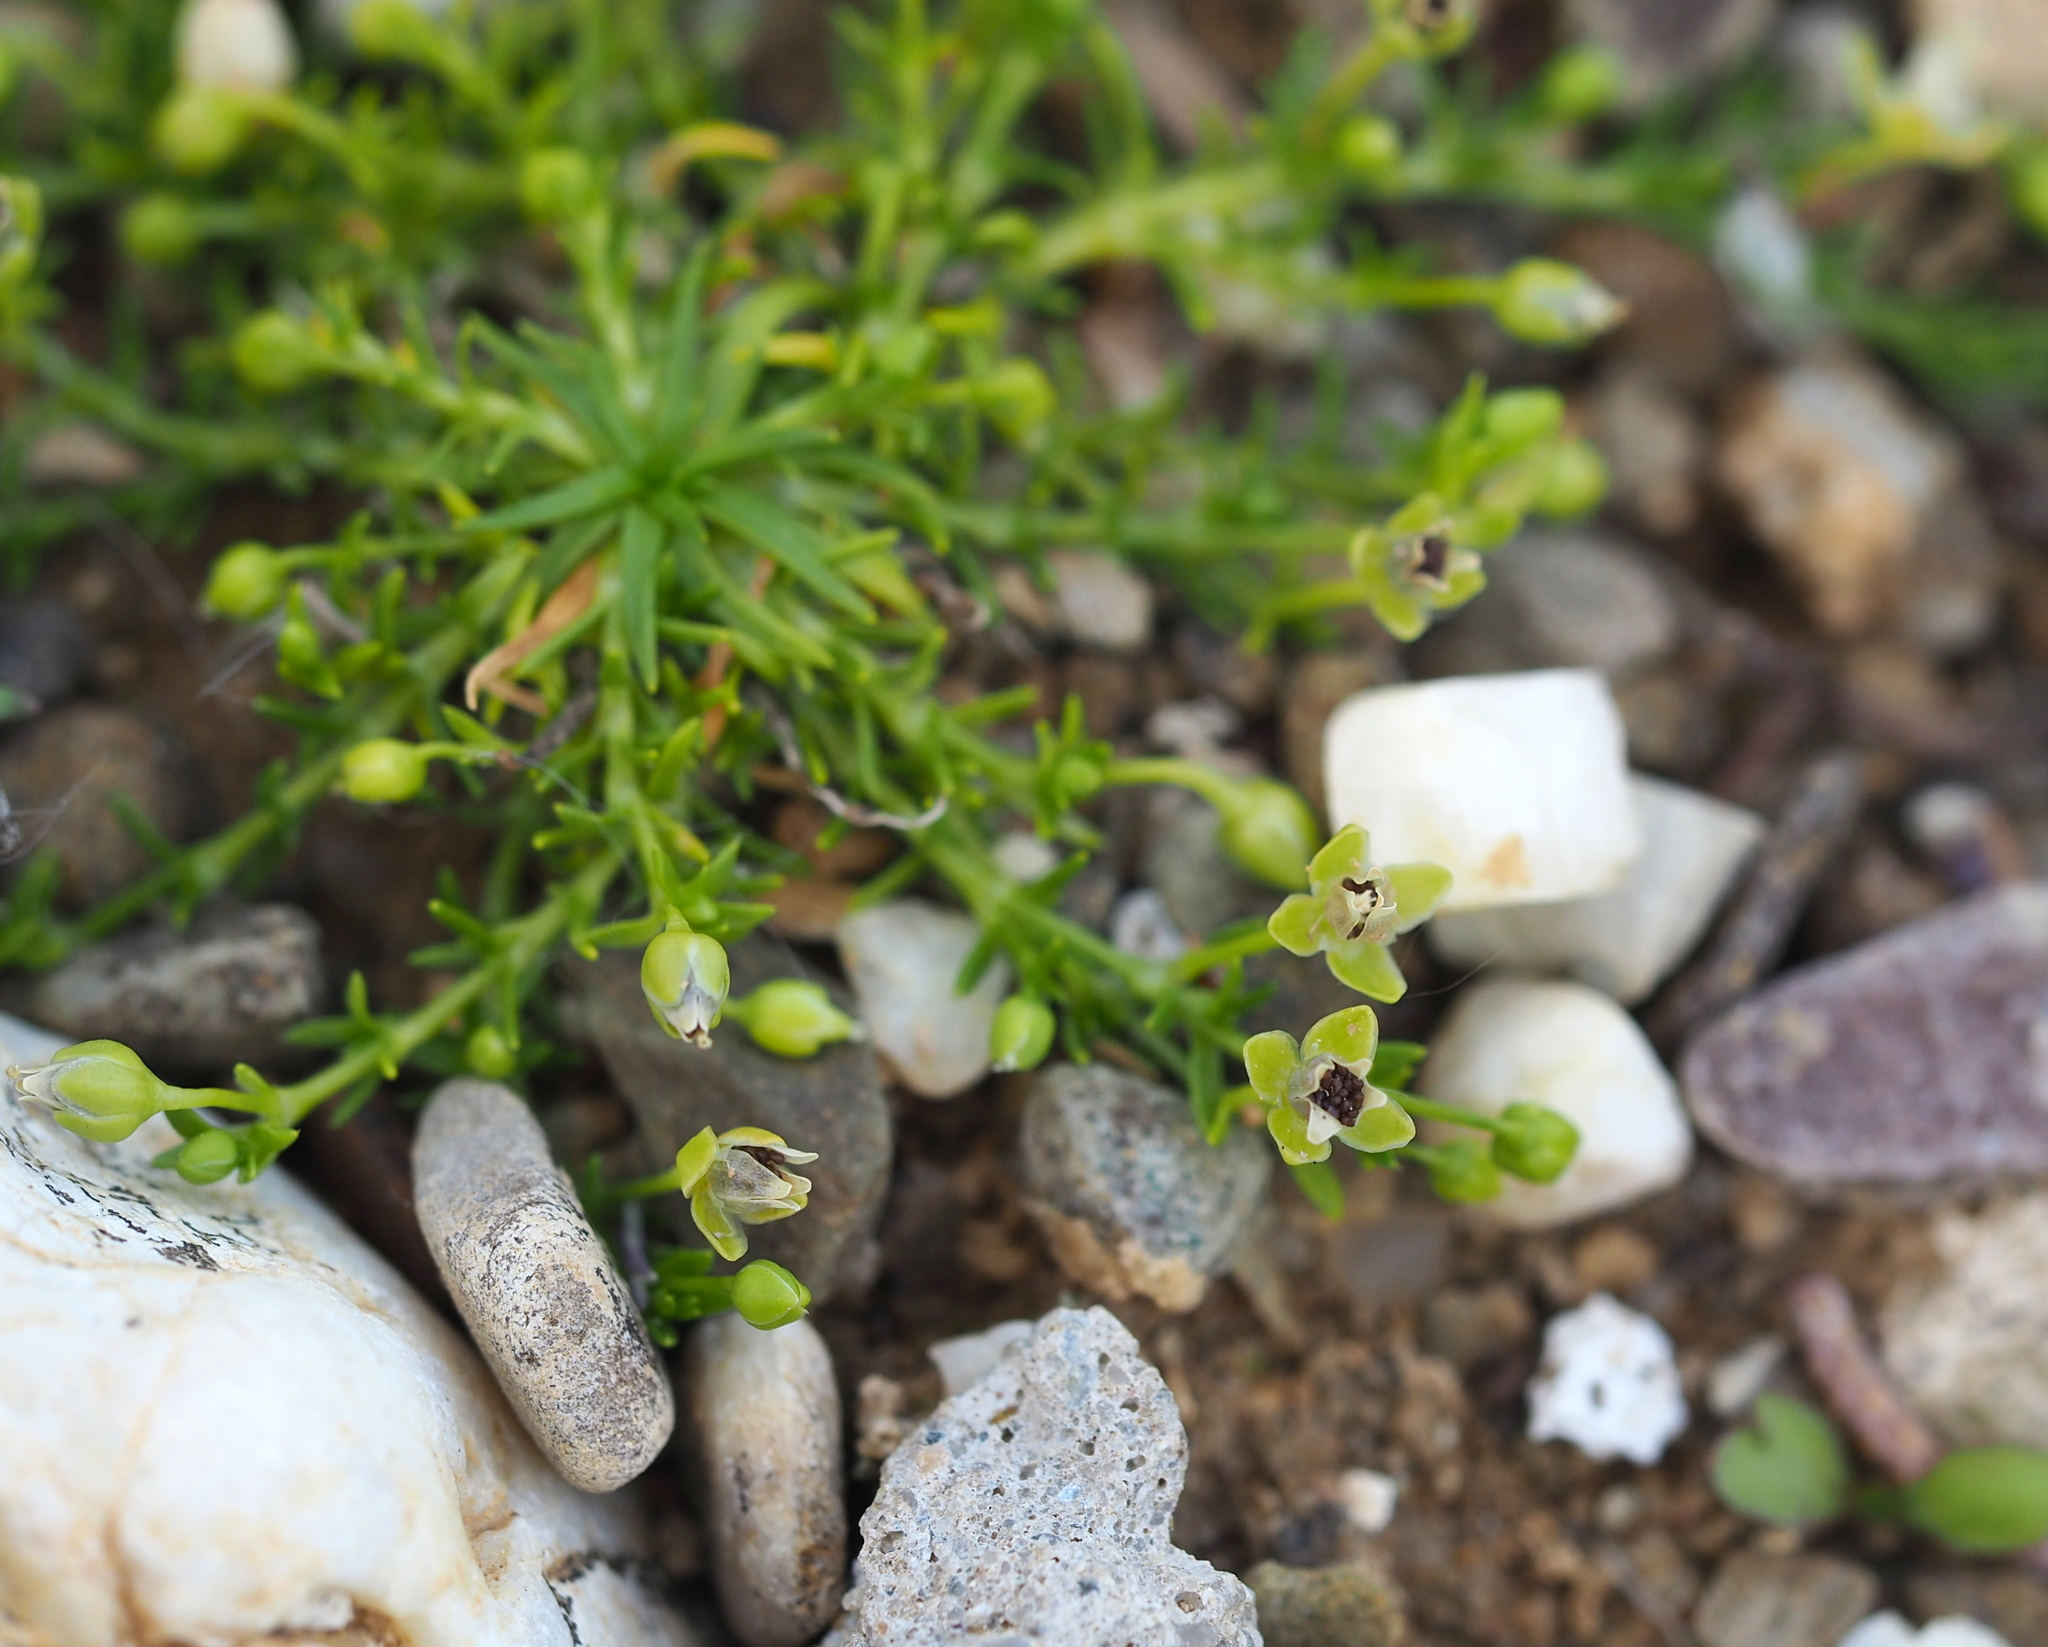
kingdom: Plantae
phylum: Tracheophyta
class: Magnoliopsida
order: Caryophyllales
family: Caryophyllaceae
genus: Sagina
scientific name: Sagina procumbens
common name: Procumbent pearlwort
